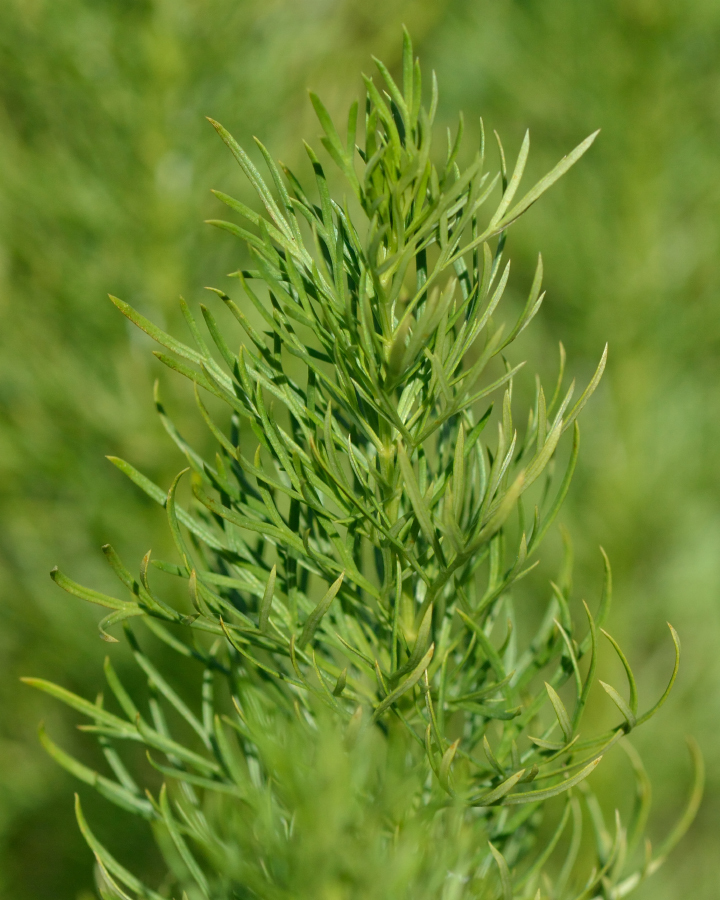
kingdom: Plantae
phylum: Tracheophyta
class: Magnoliopsida
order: Ranunculales
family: Ranunculaceae
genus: Adonis
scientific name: Adonis vernalis
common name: Yellow pheasants-eye
